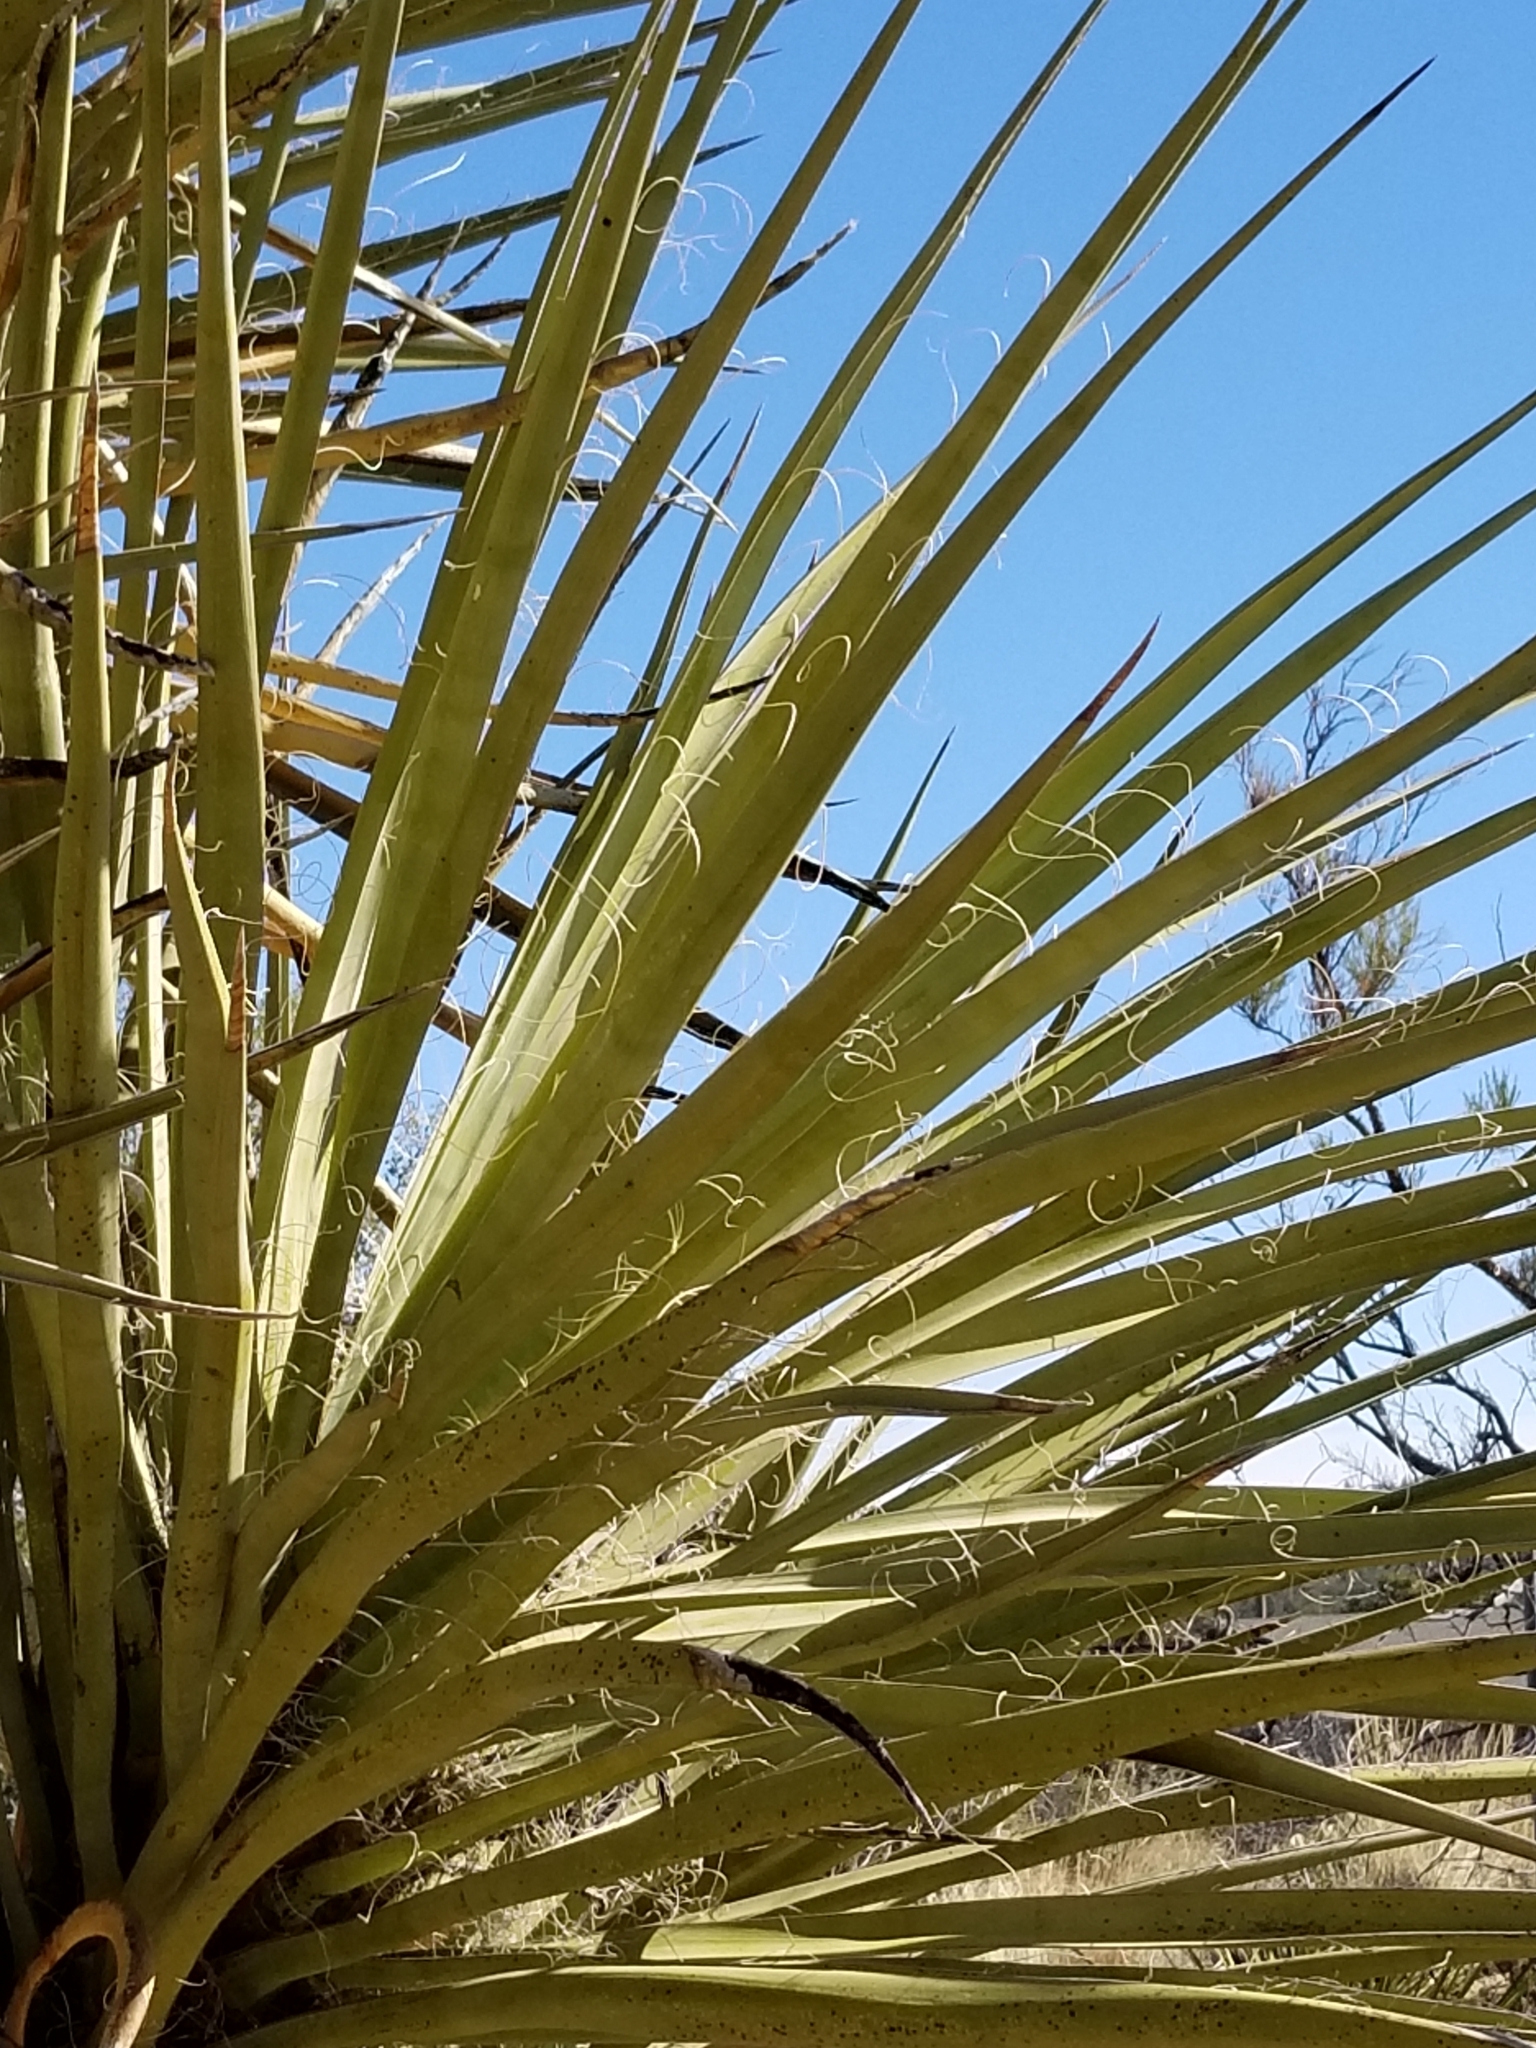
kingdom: Plantae
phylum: Tracheophyta
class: Liliopsida
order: Asparagales
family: Asparagaceae
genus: Yucca
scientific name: Yucca schidigera
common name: Mojave yucca
